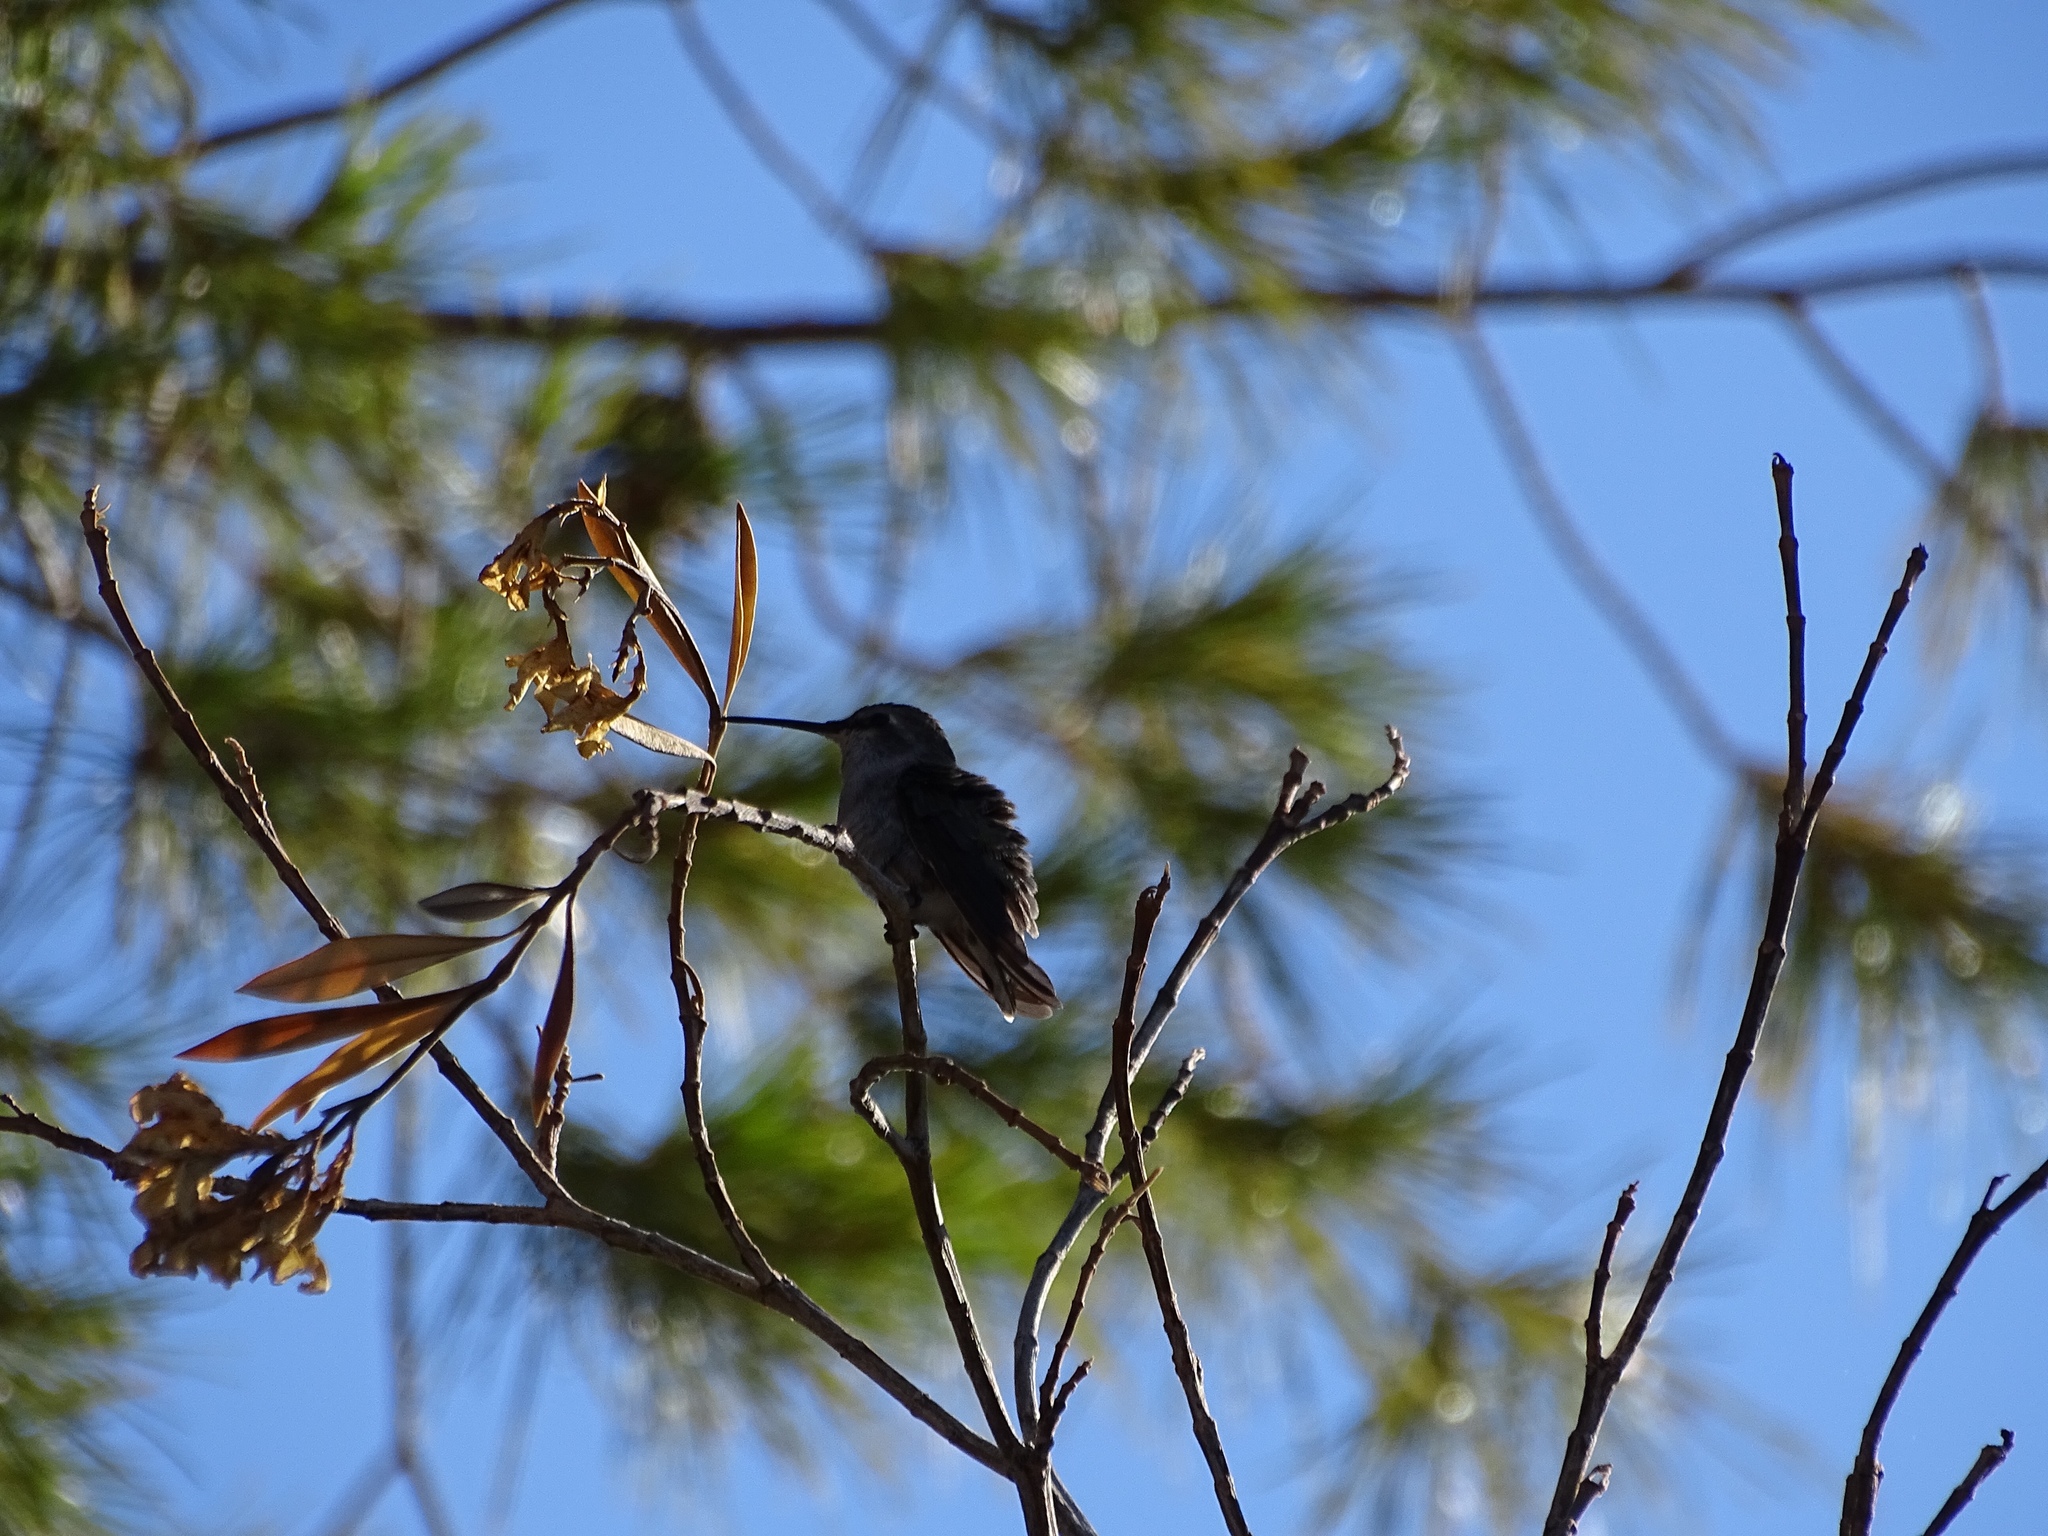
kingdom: Animalia
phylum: Chordata
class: Aves
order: Apodiformes
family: Trochilidae
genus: Calypte
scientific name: Calypte costae
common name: Costa's hummingbird
